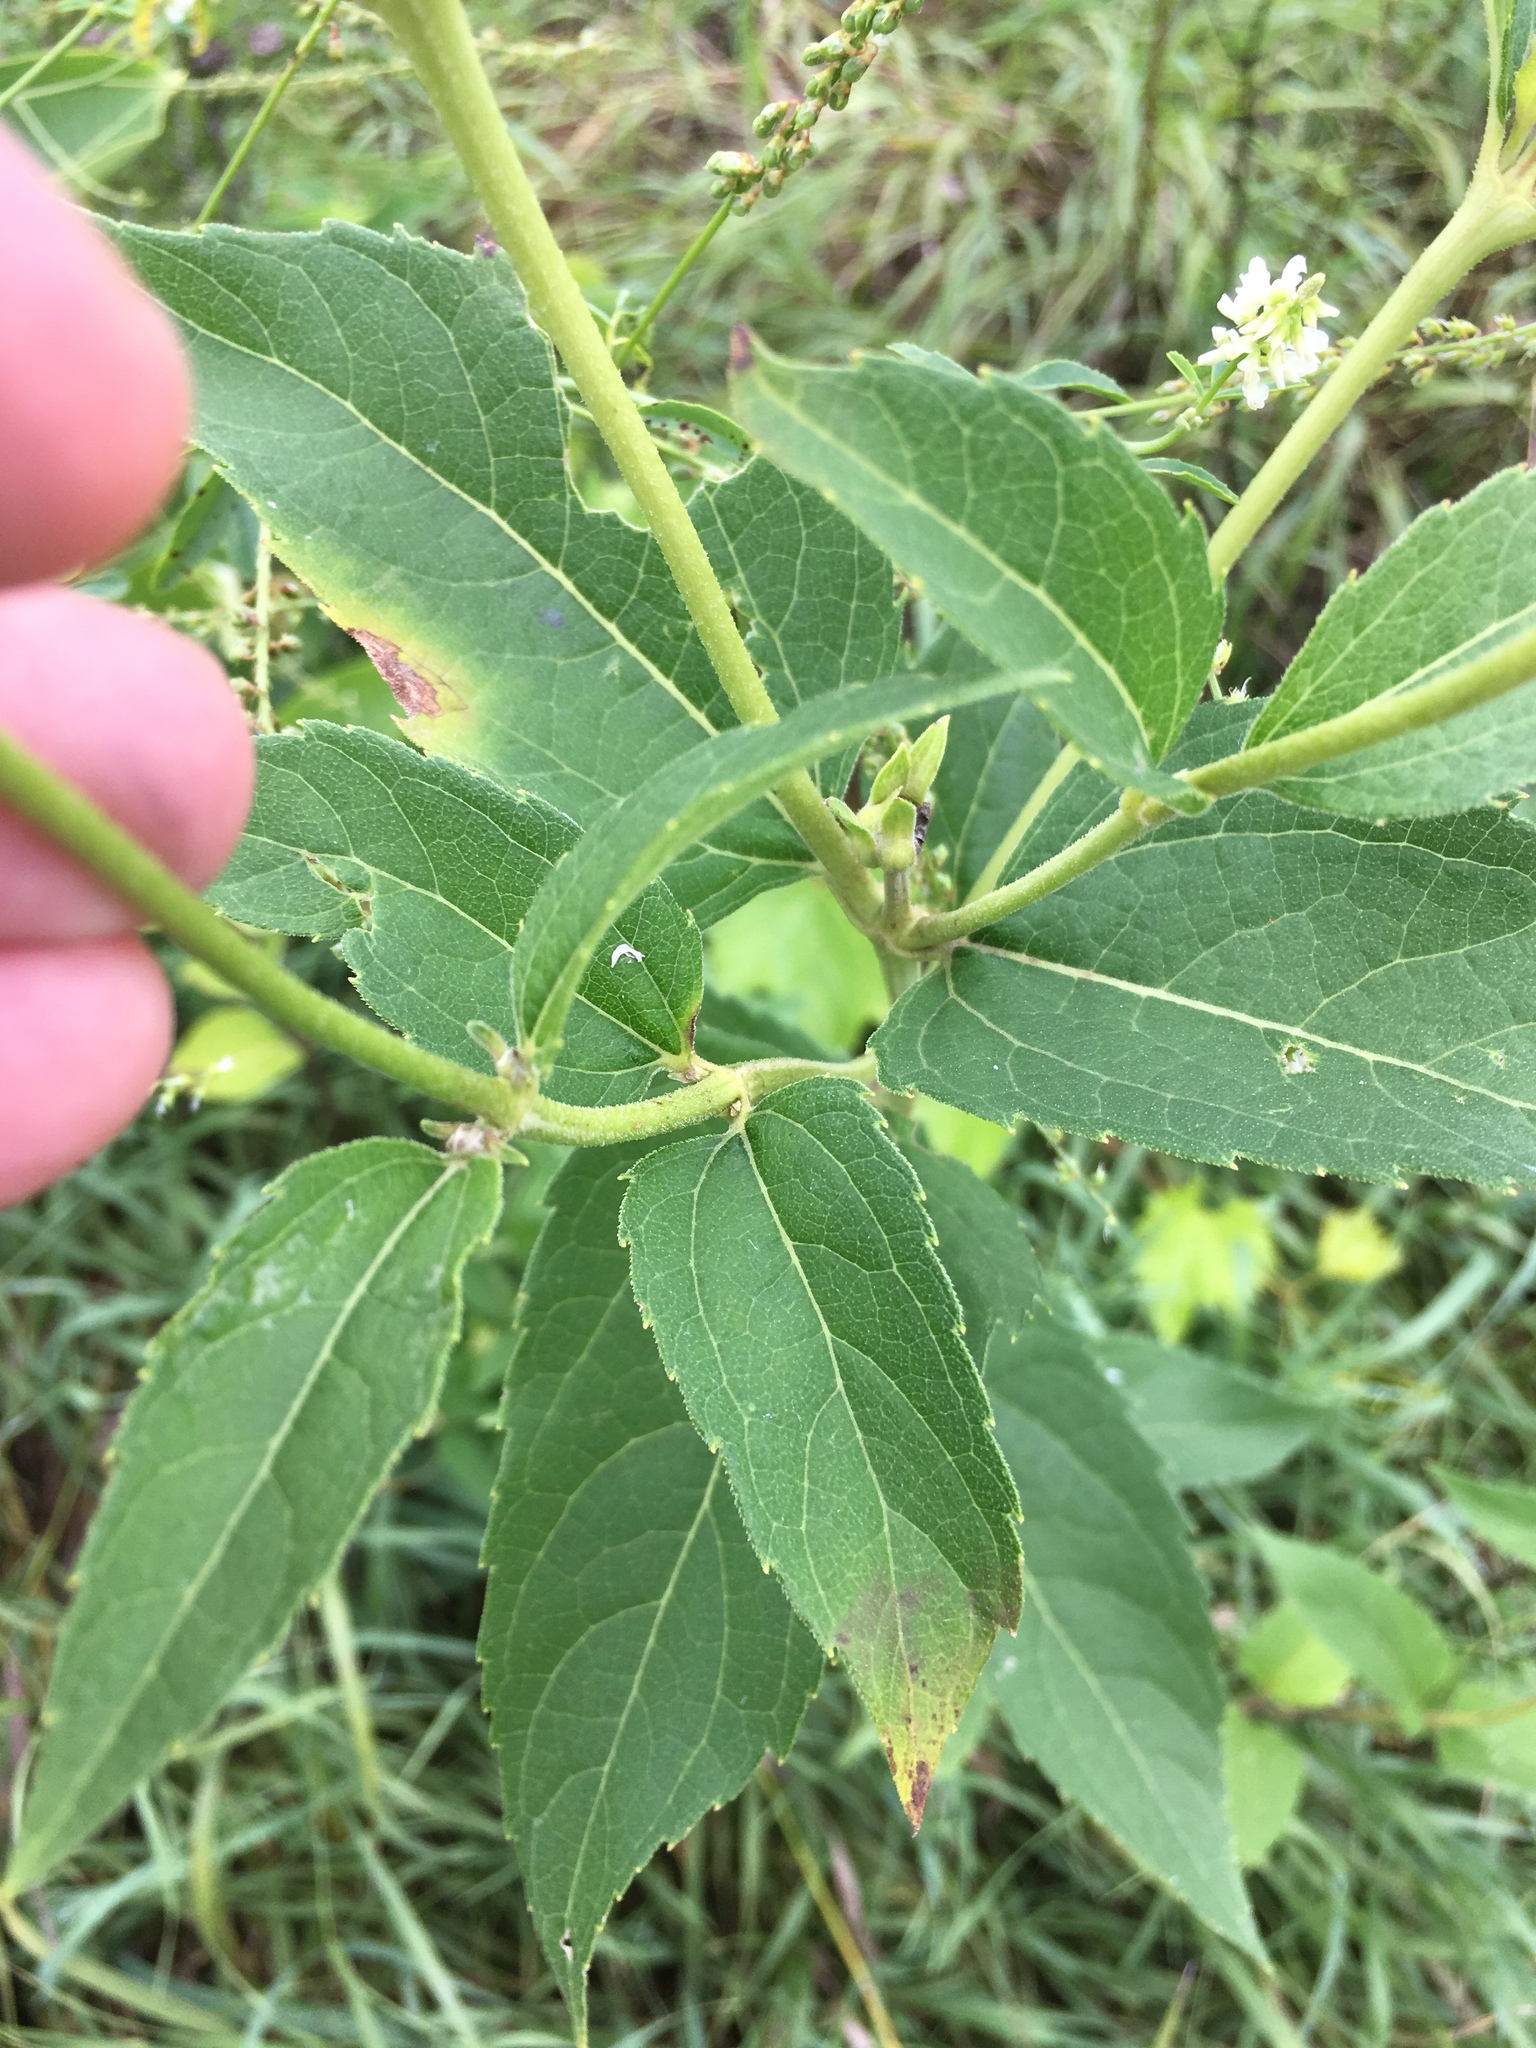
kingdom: Plantae
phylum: Tracheophyta
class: Magnoliopsida
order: Asterales
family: Asteraceae
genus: Heliopsis
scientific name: Heliopsis helianthoides
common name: False sunflower
